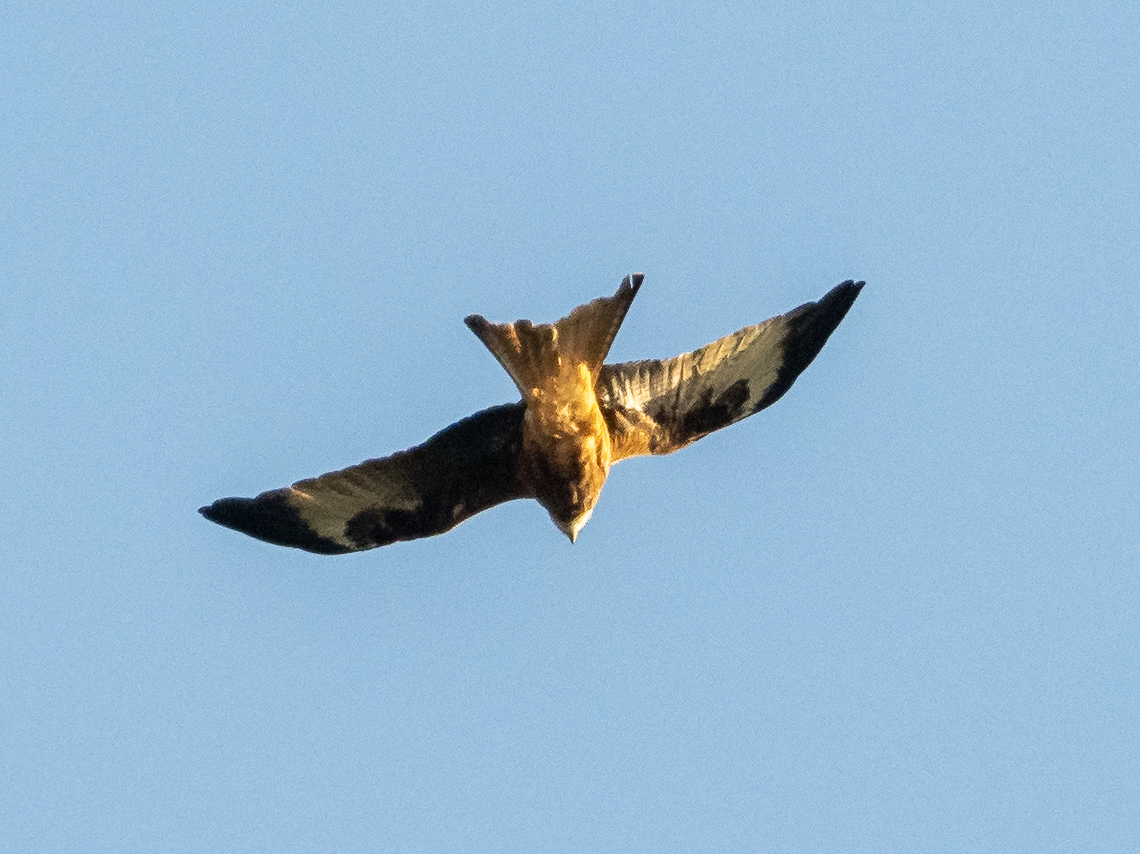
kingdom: Animalia
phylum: Chordata
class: Aves
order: Accipitriformes
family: Accipitridae
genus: Milvus
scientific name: Milvus milvus
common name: Red kite
